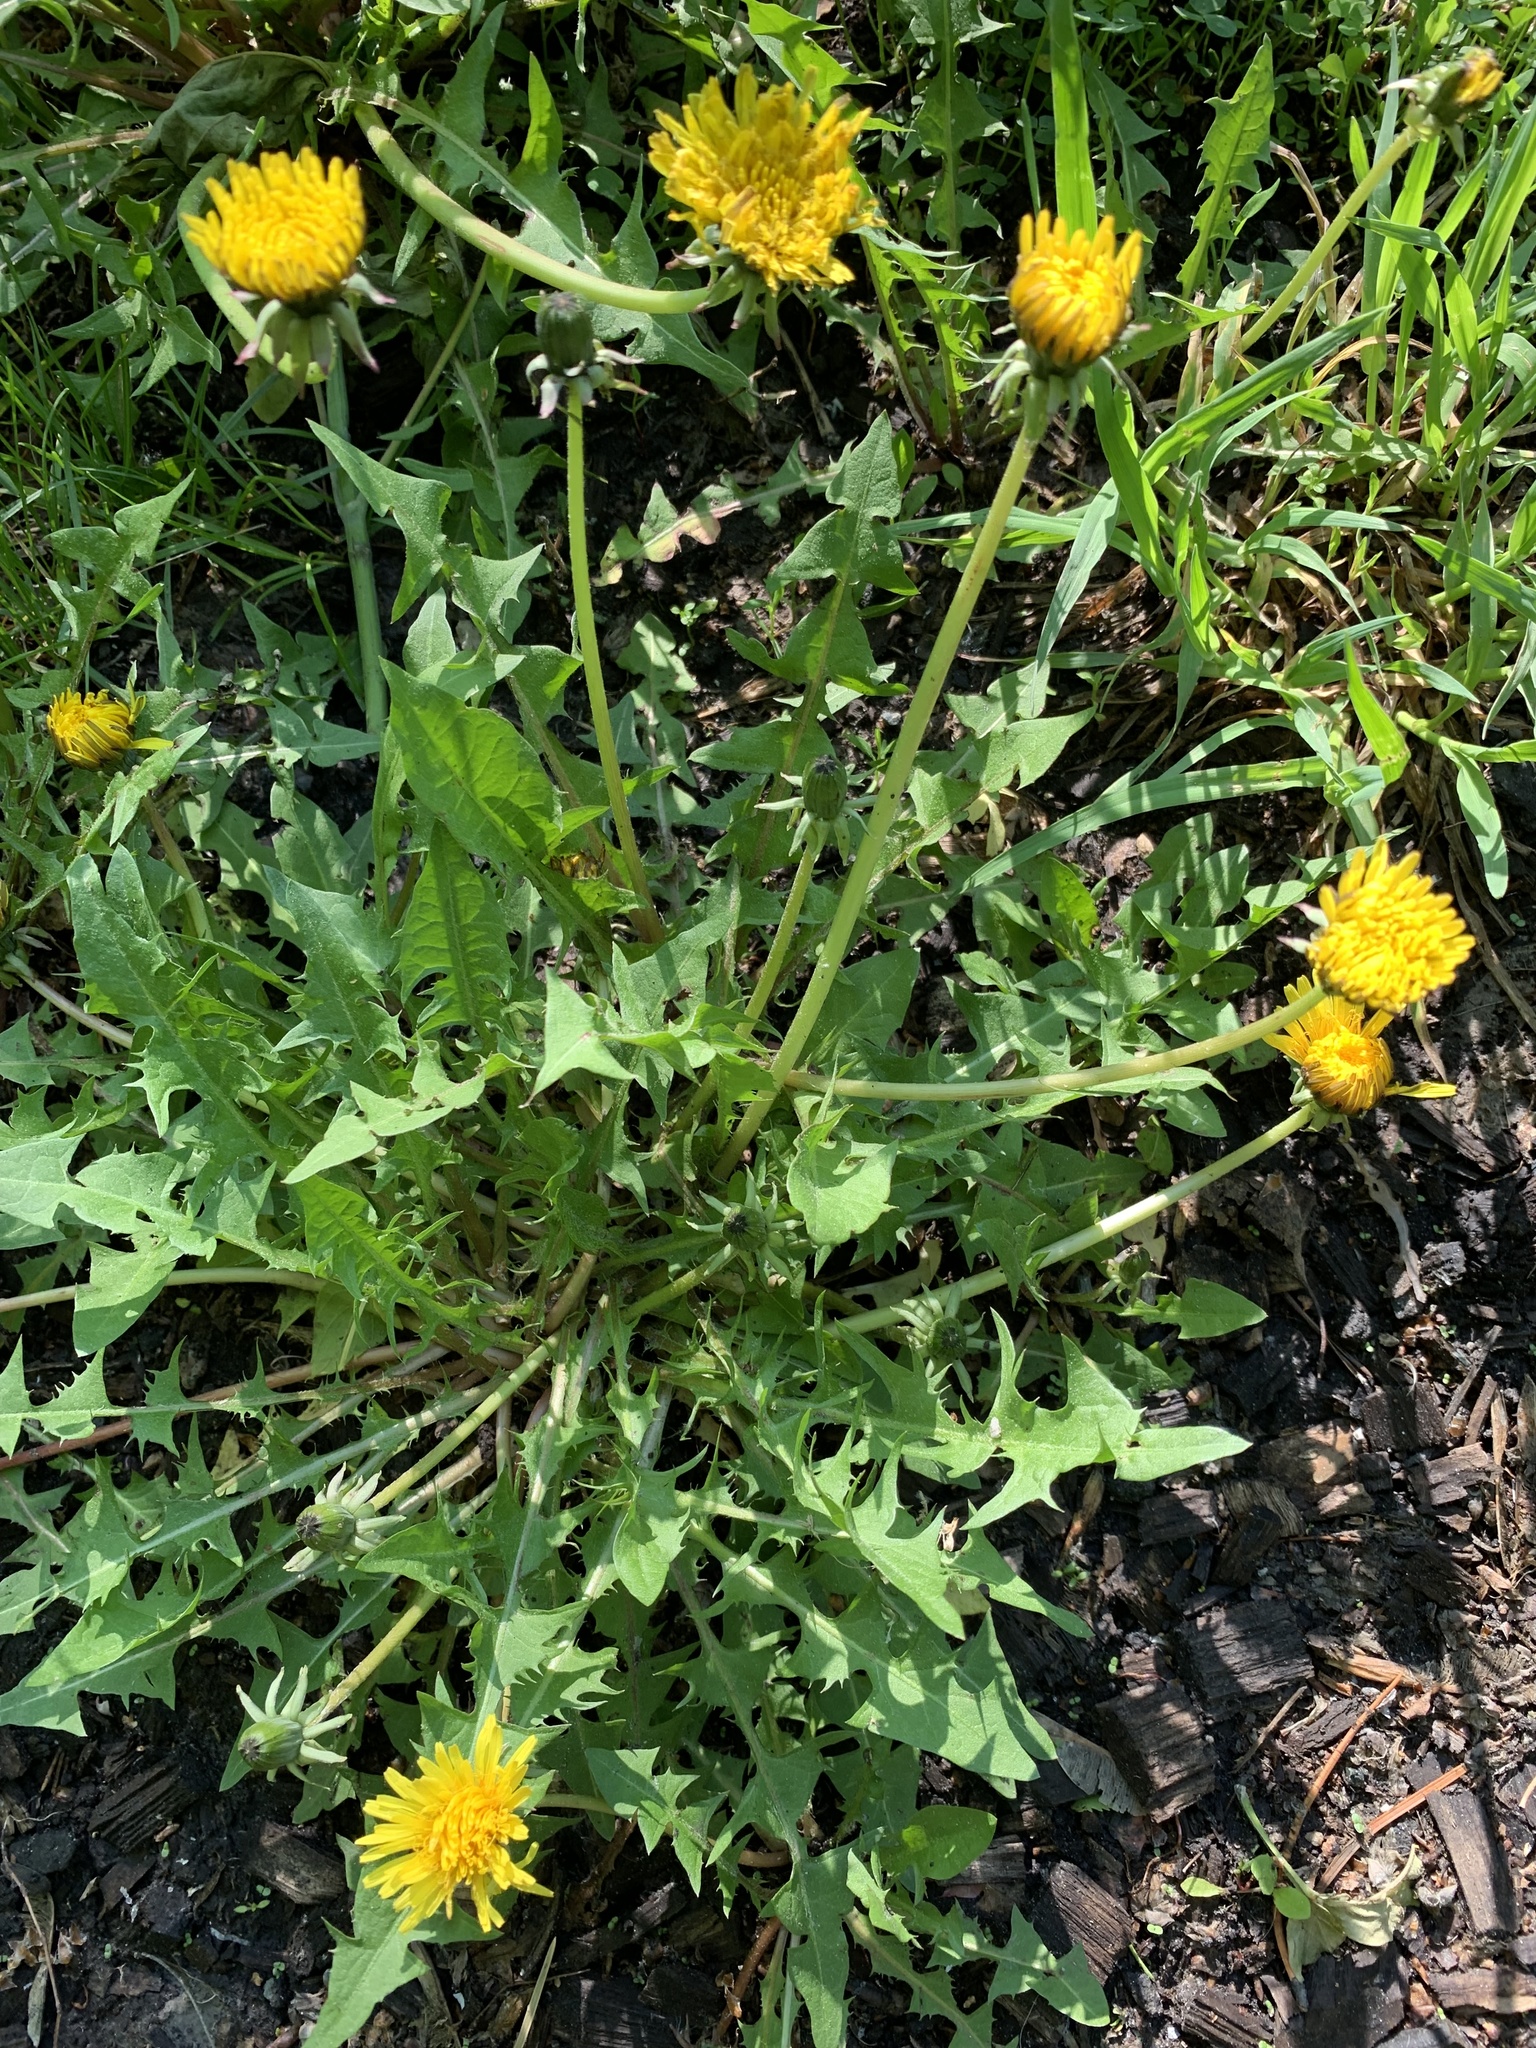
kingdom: Plantae
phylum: Tracheophyta
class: Magnoliopsida
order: Asterales
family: Asteraceae
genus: Taraxacum
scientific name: Taraxacum officinale
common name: Common dandelion
